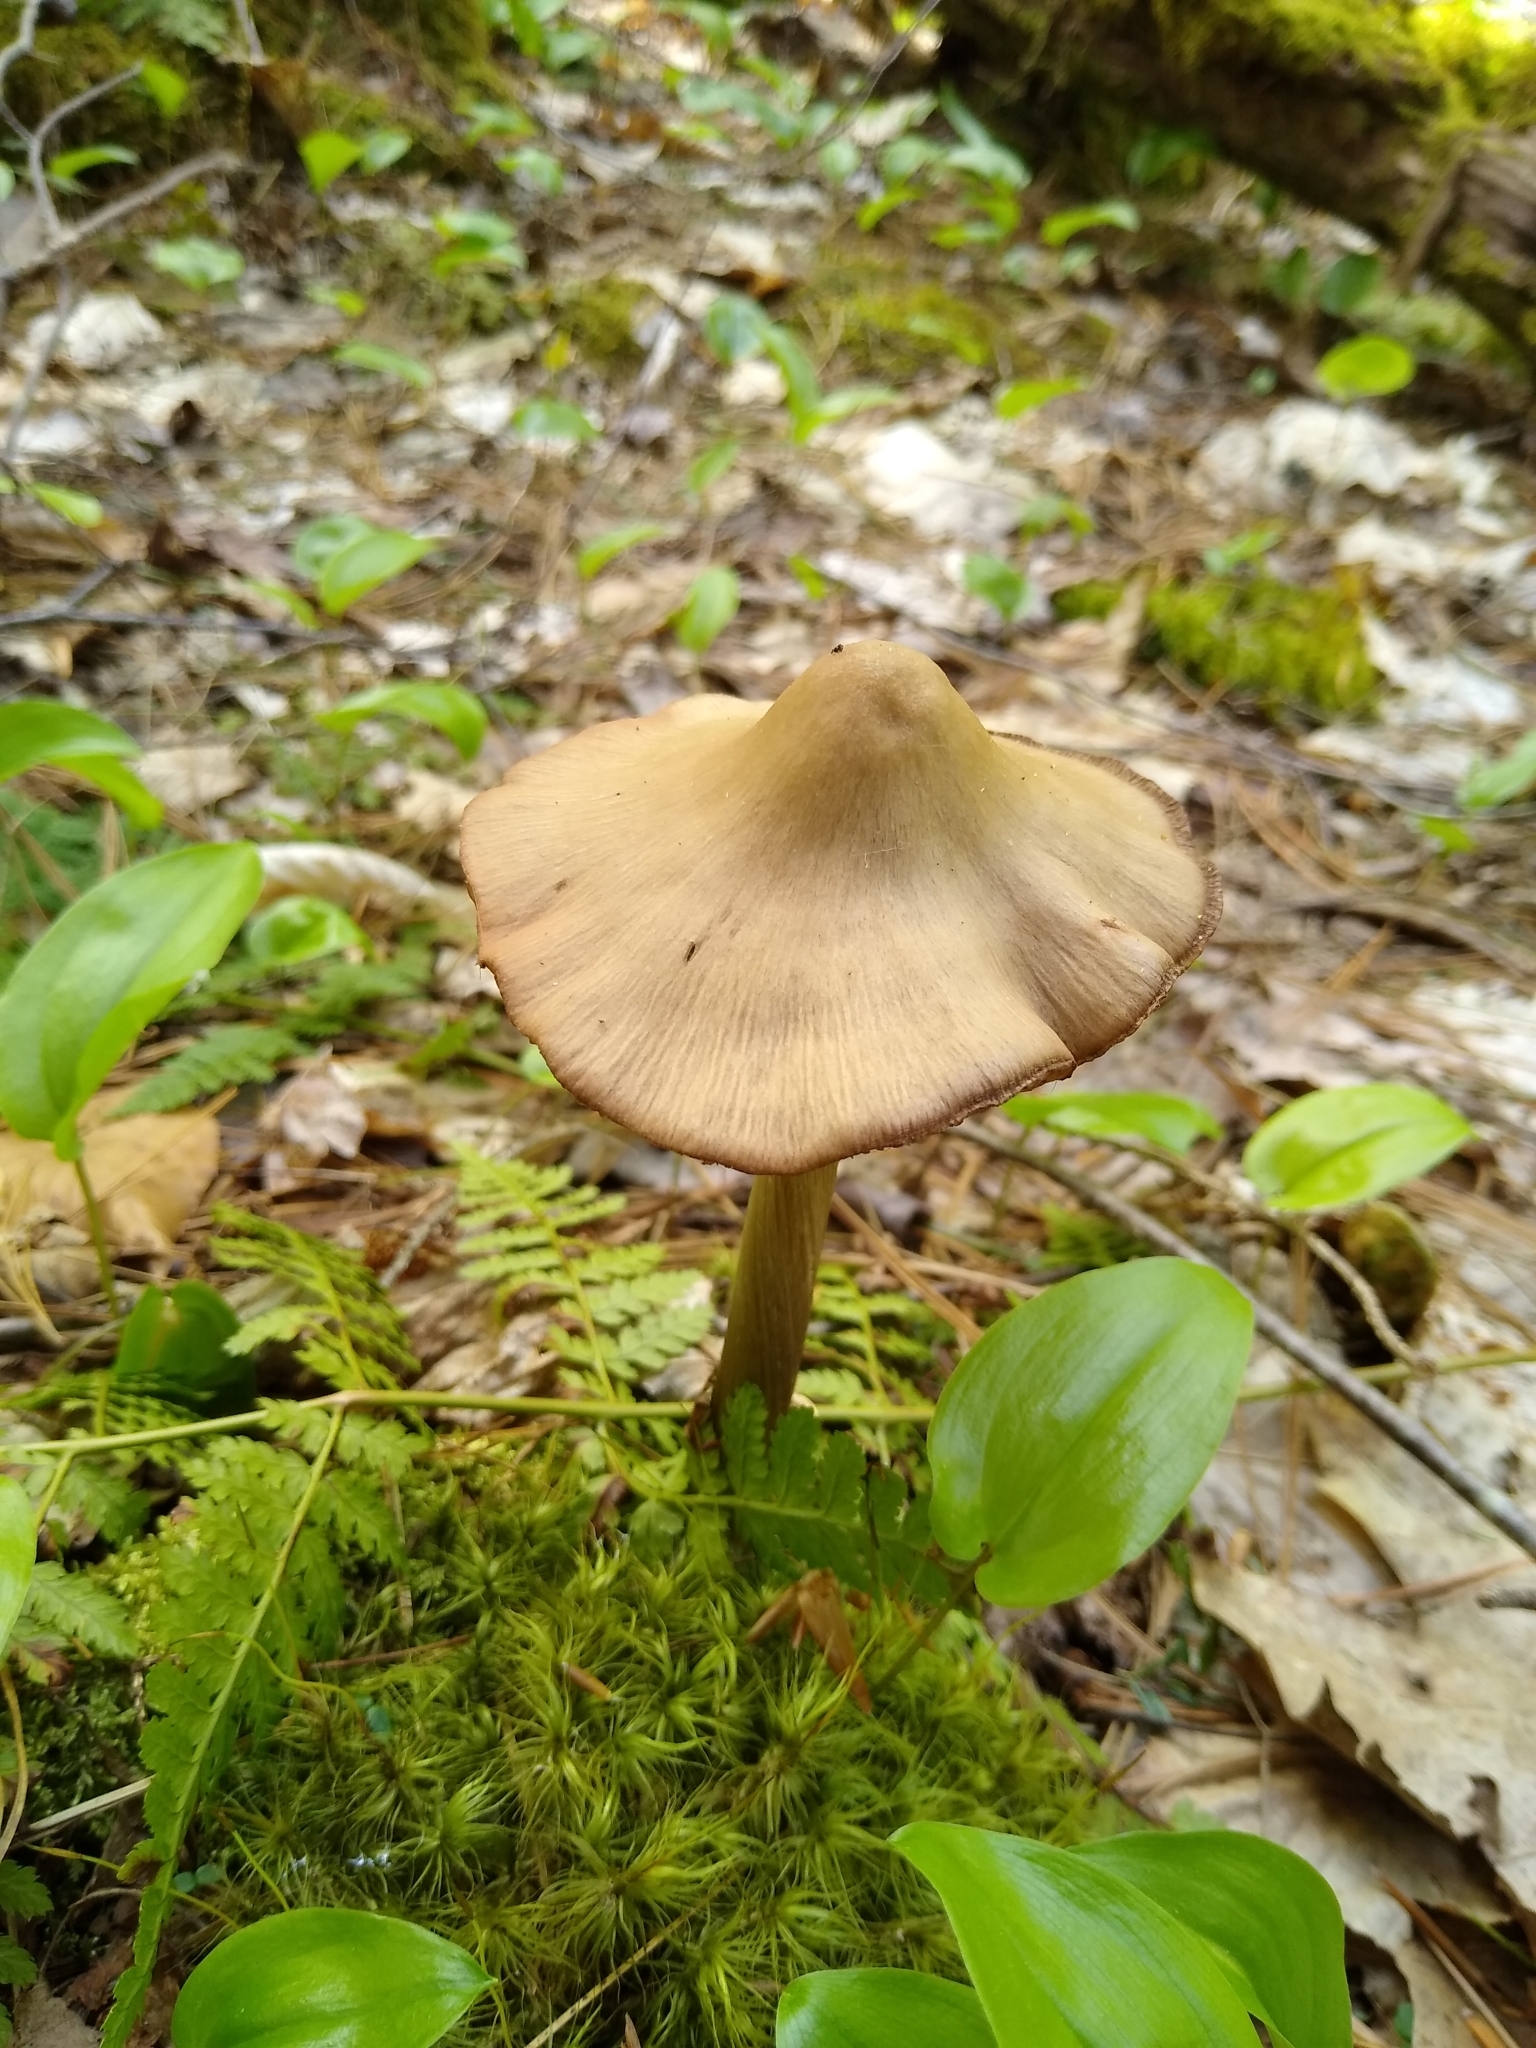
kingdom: Fungi
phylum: Basidiomycota
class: Agaricomycetes
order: Agaricales
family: Entolomataceae
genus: Entoloma
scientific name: Entoloma strictius
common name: Straight-stalked entoloma
